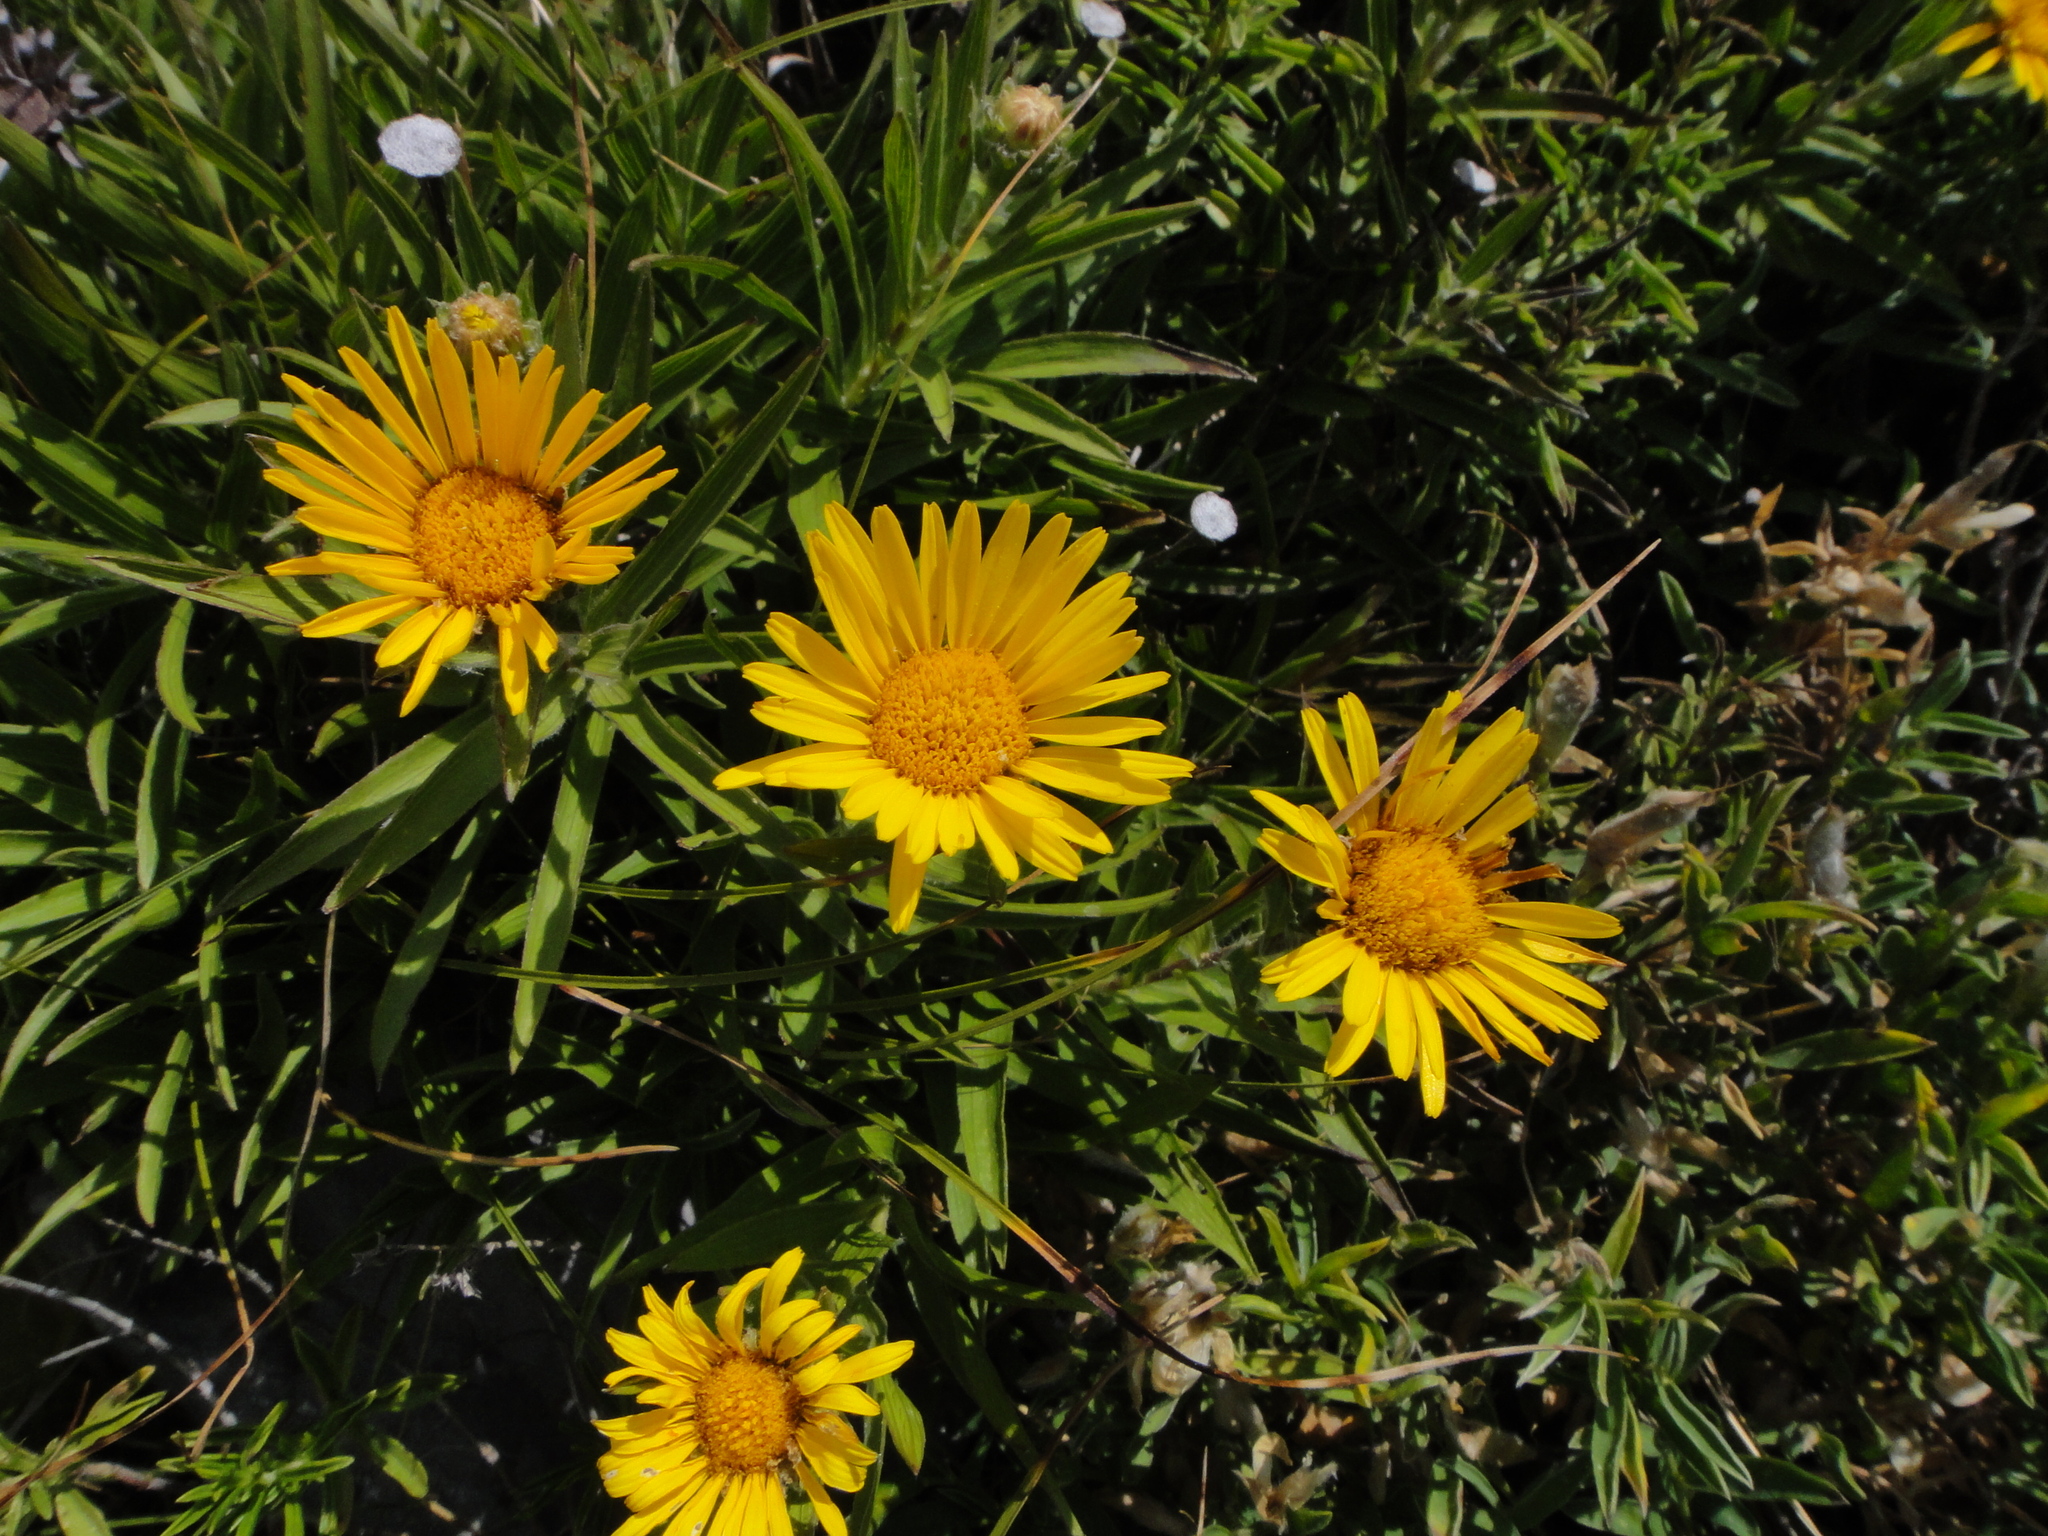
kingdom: Plantae
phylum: Tracheophyta
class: Magnoliopsida
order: Asterales
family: Asteraceae
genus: Pentanema
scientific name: Pentanema ensifolium
